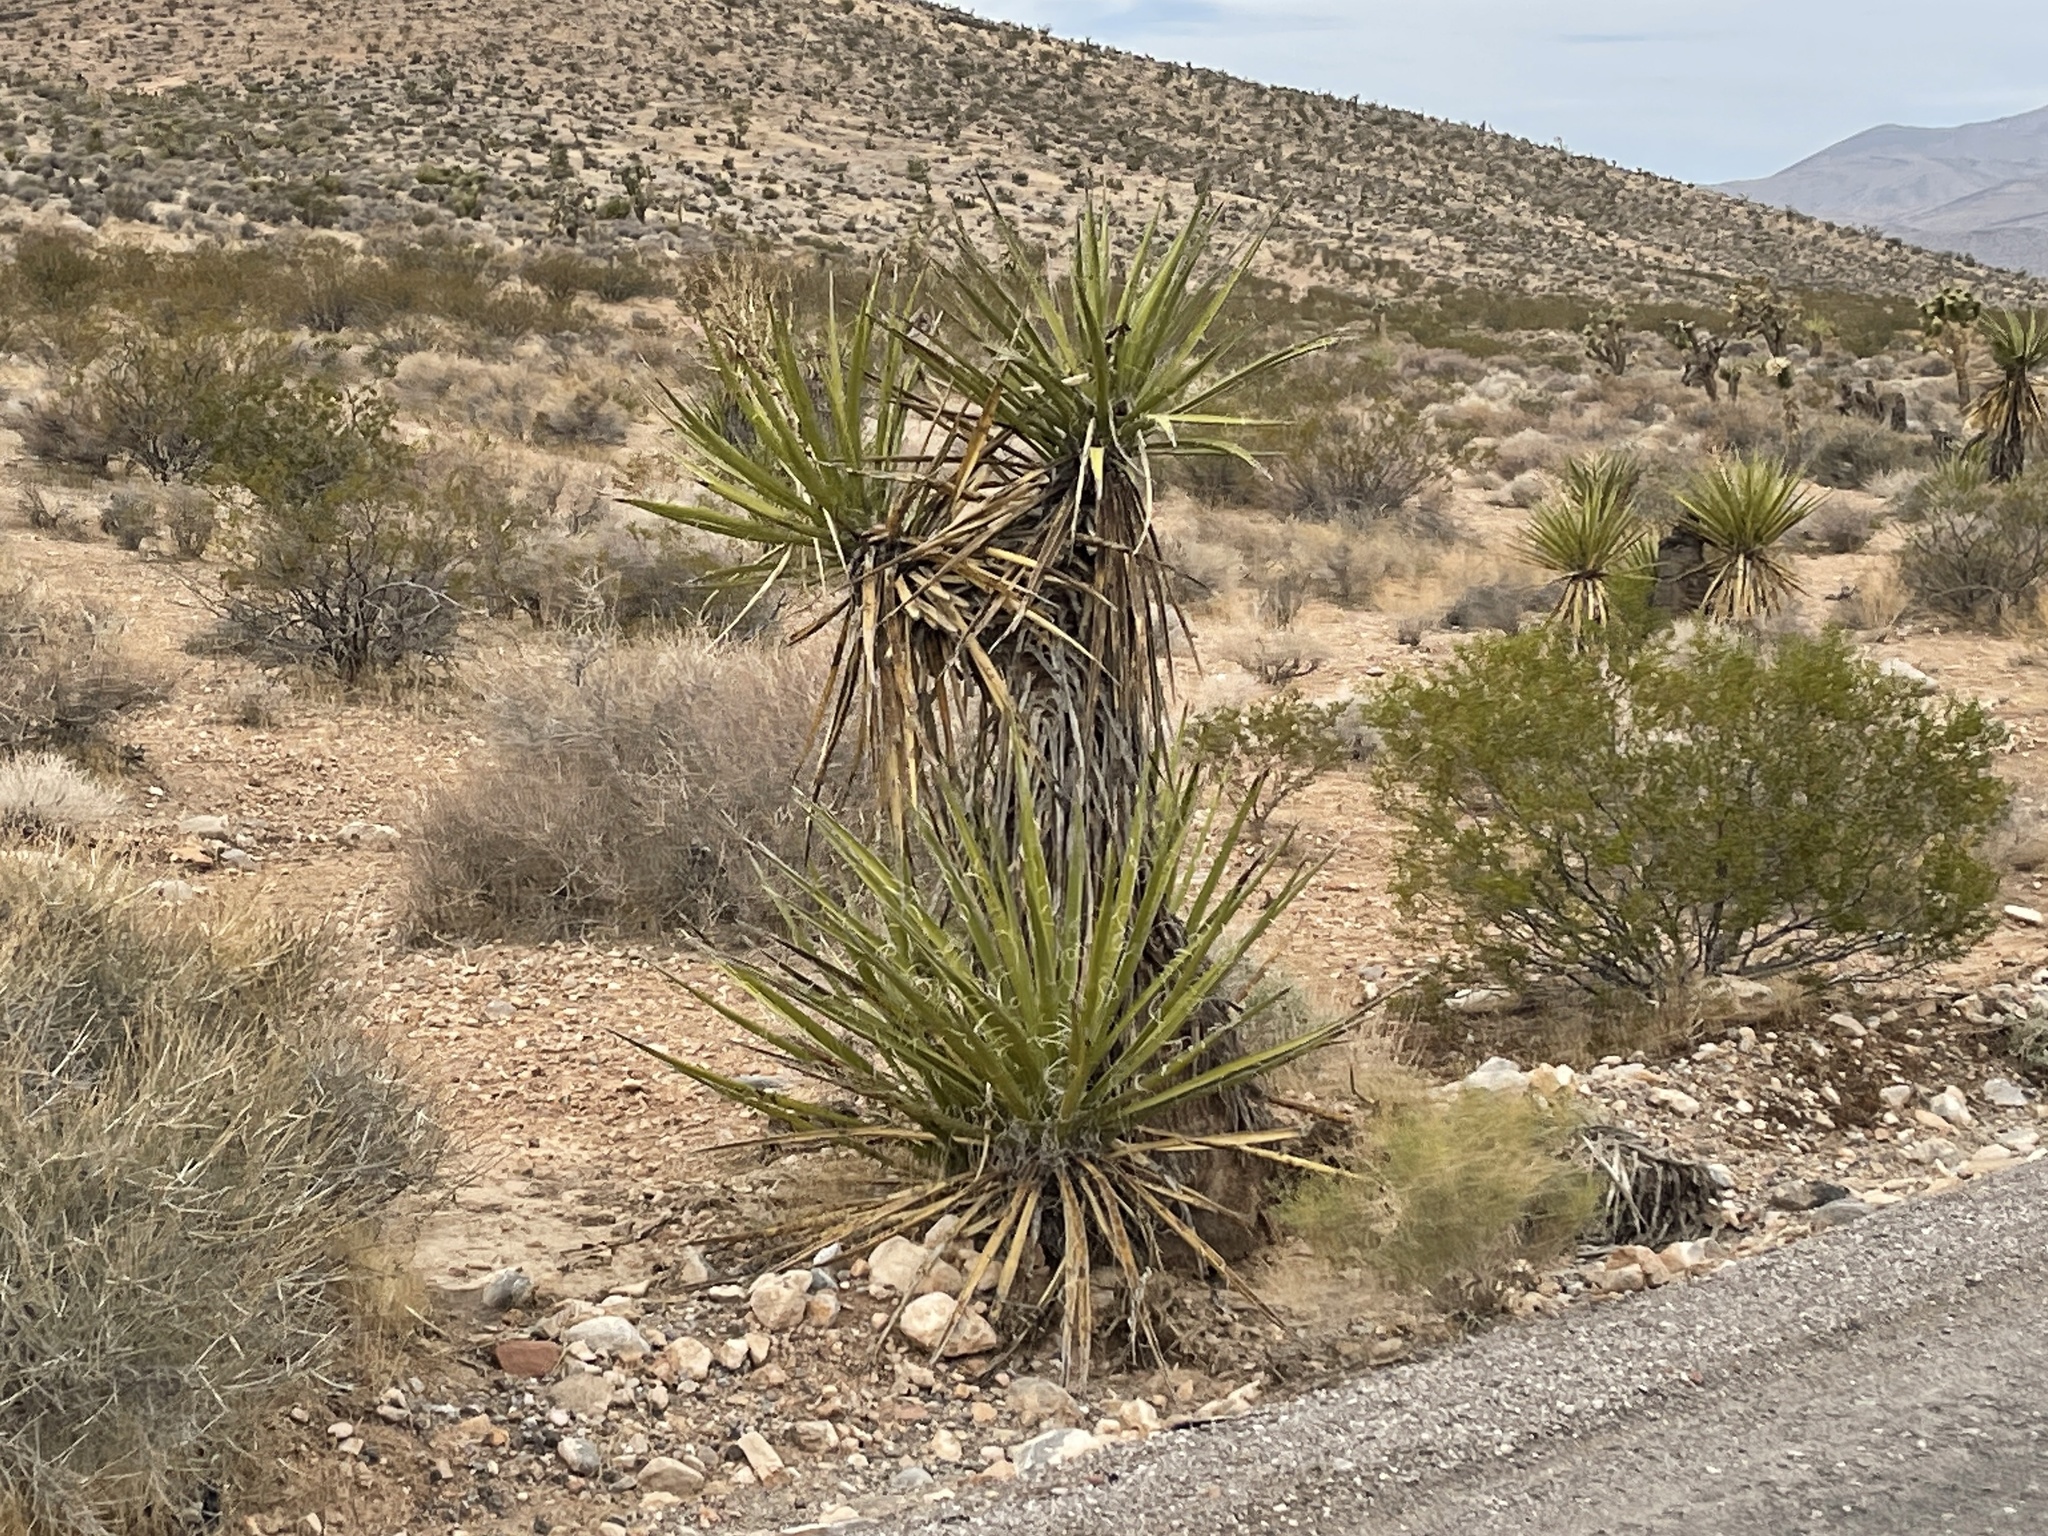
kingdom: Plantae
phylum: Tracheophyta
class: Liliopsida
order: Asparagales
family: Asparagaceae
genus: Yucca
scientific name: Yucca schidigera
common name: Mojave yucca
